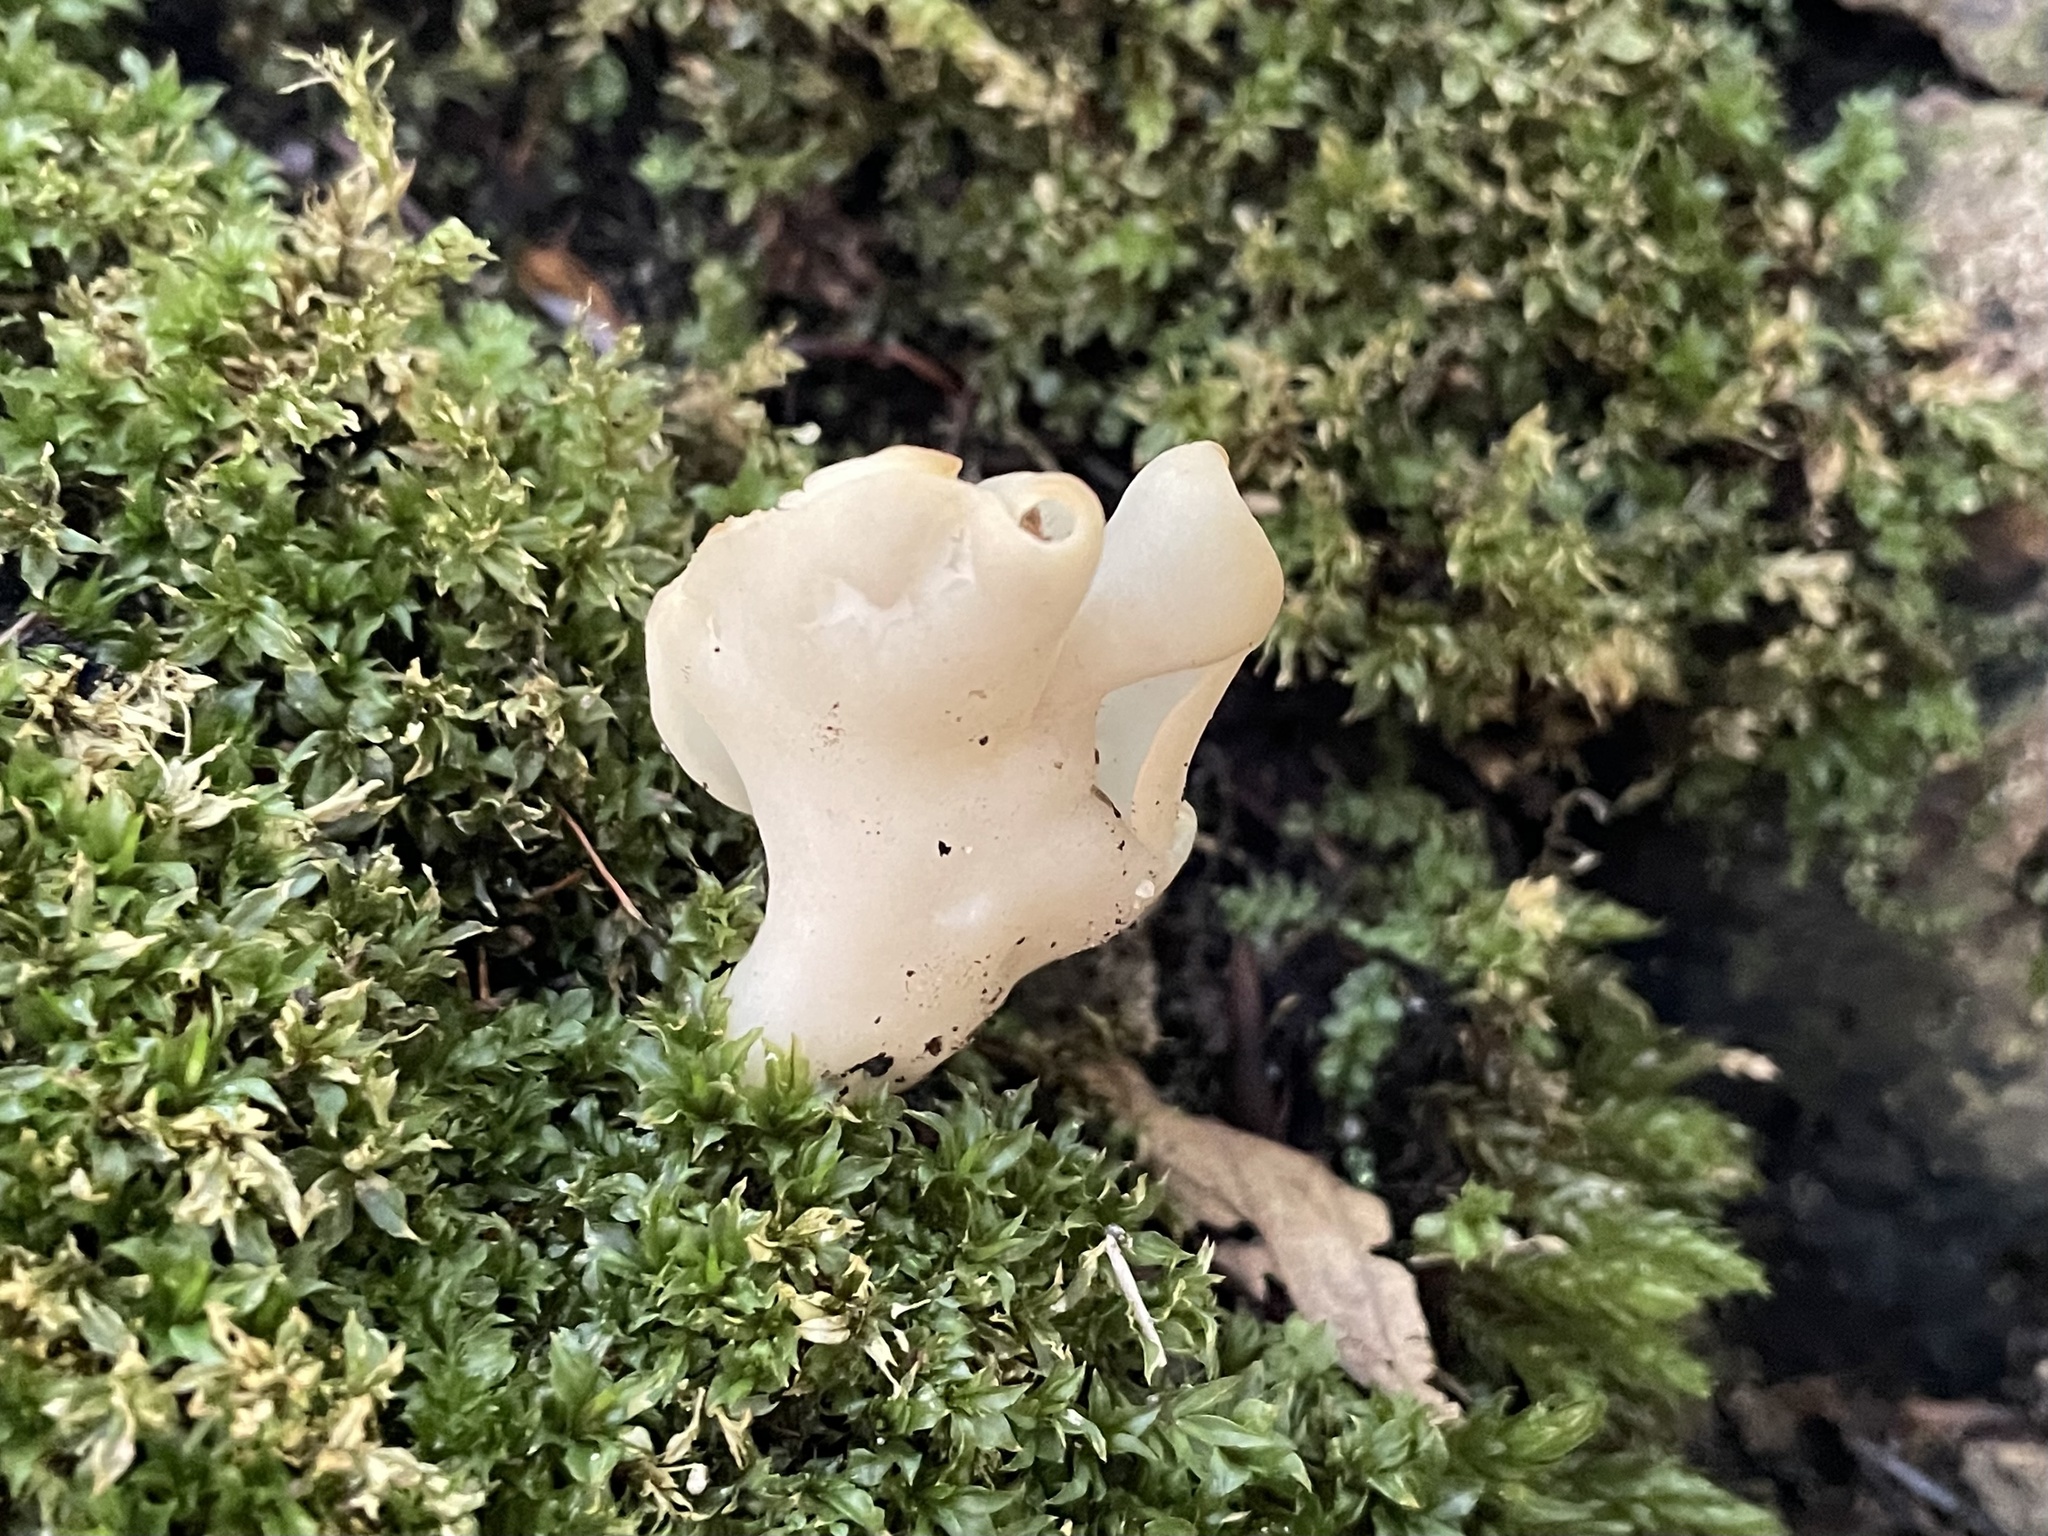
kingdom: Fungi
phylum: Ascomycota
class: Pezizomycetes
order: Pezizales
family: Helvellaceae
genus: Helvella
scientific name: Helvella lactea
